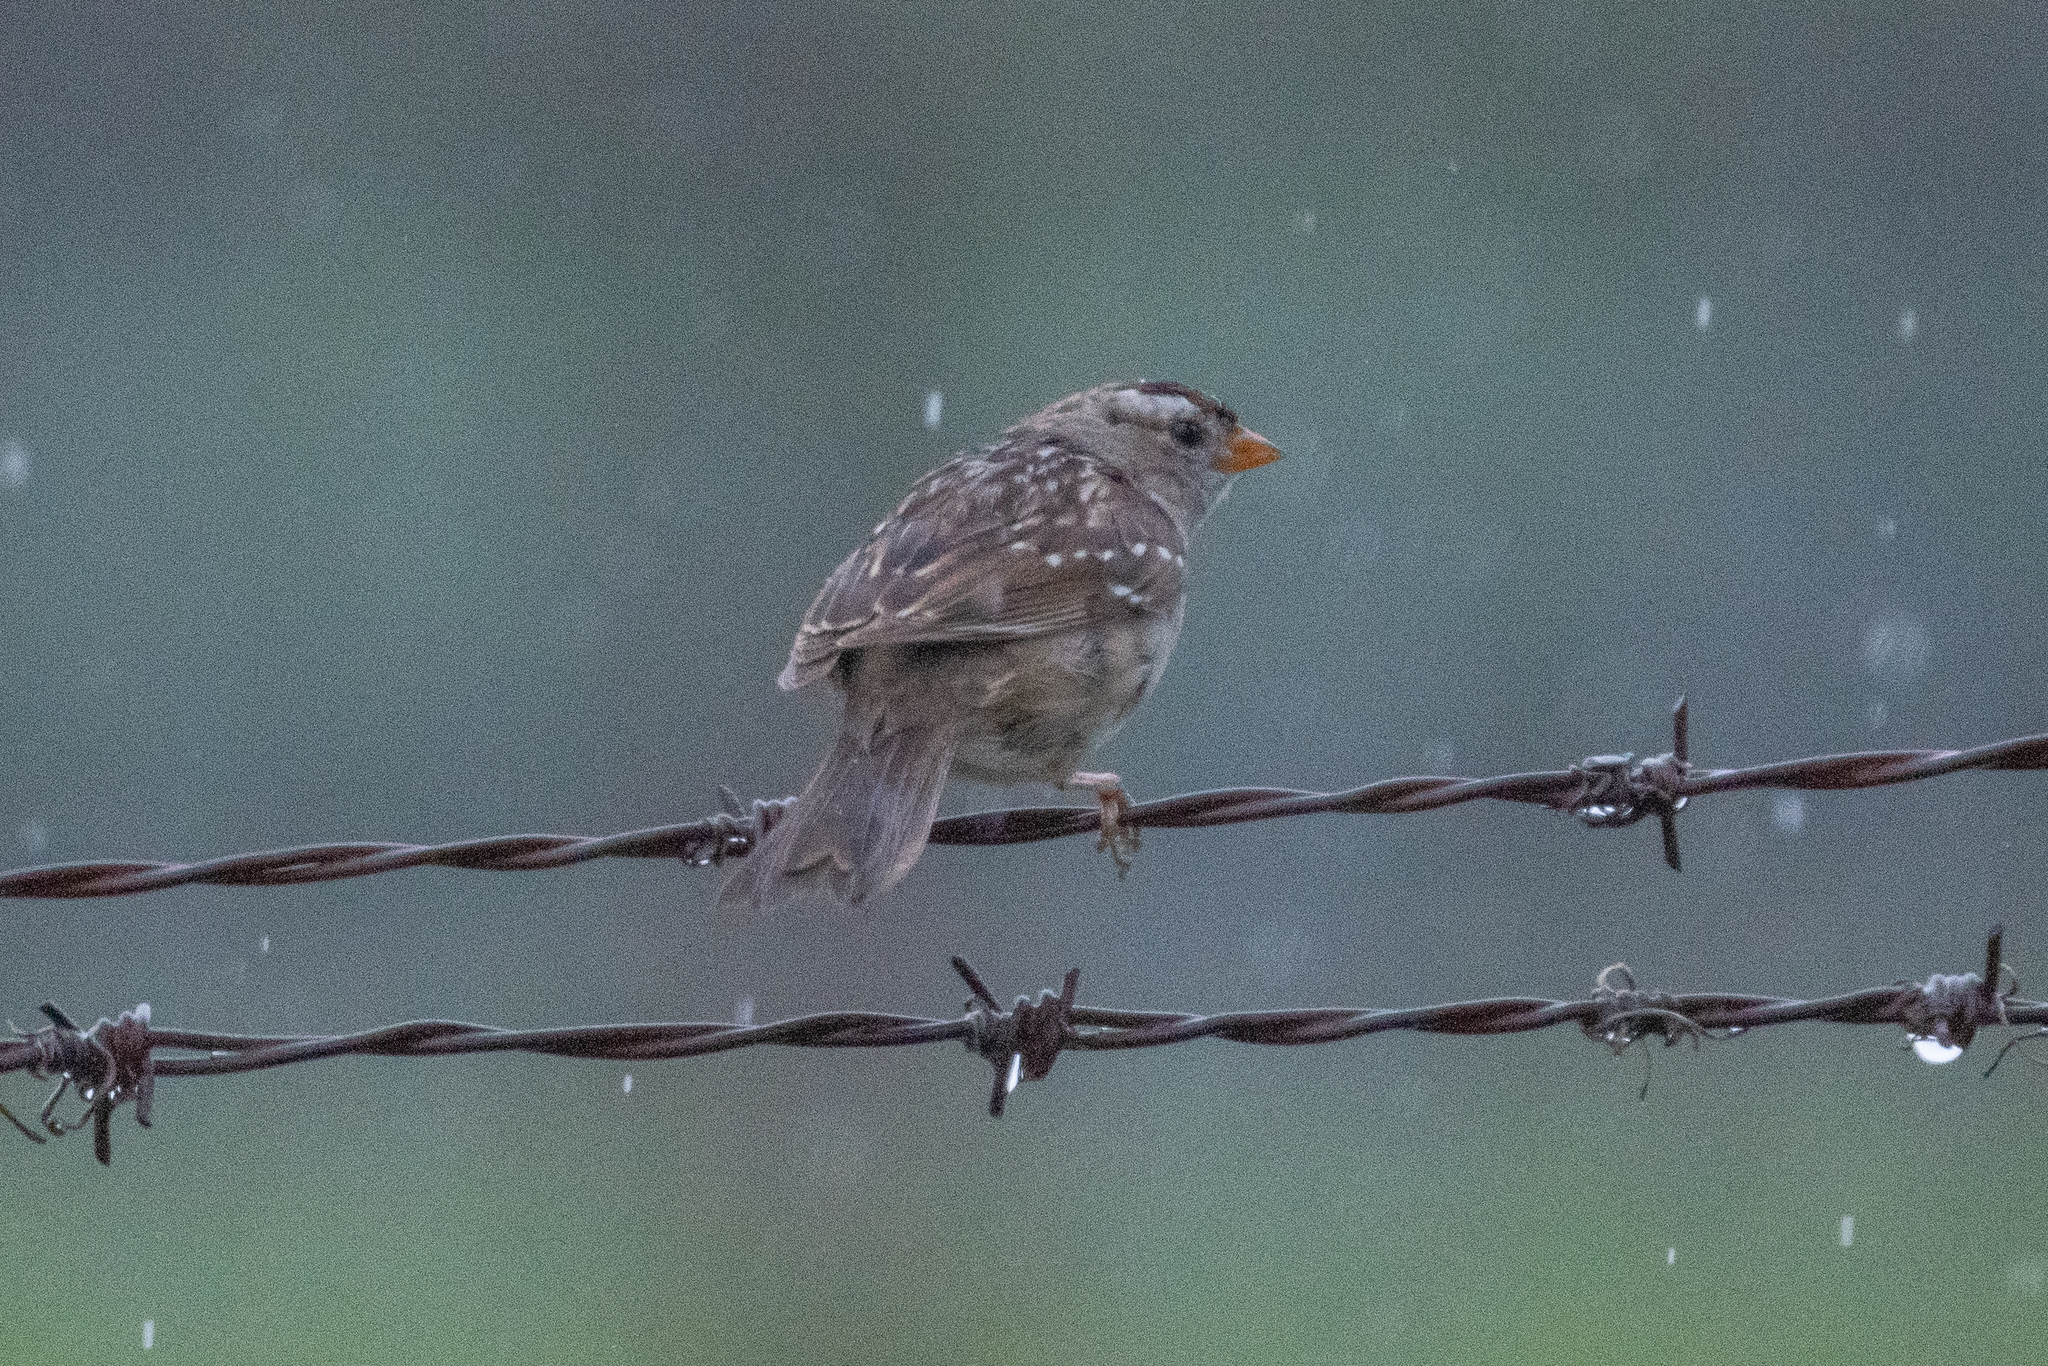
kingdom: Animalia
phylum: Chordata
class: Aves
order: Passeriformes
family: Passerellidae
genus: Zonotrichia
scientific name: Zonotrichia leucophrys
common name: White-crowned sparrow
